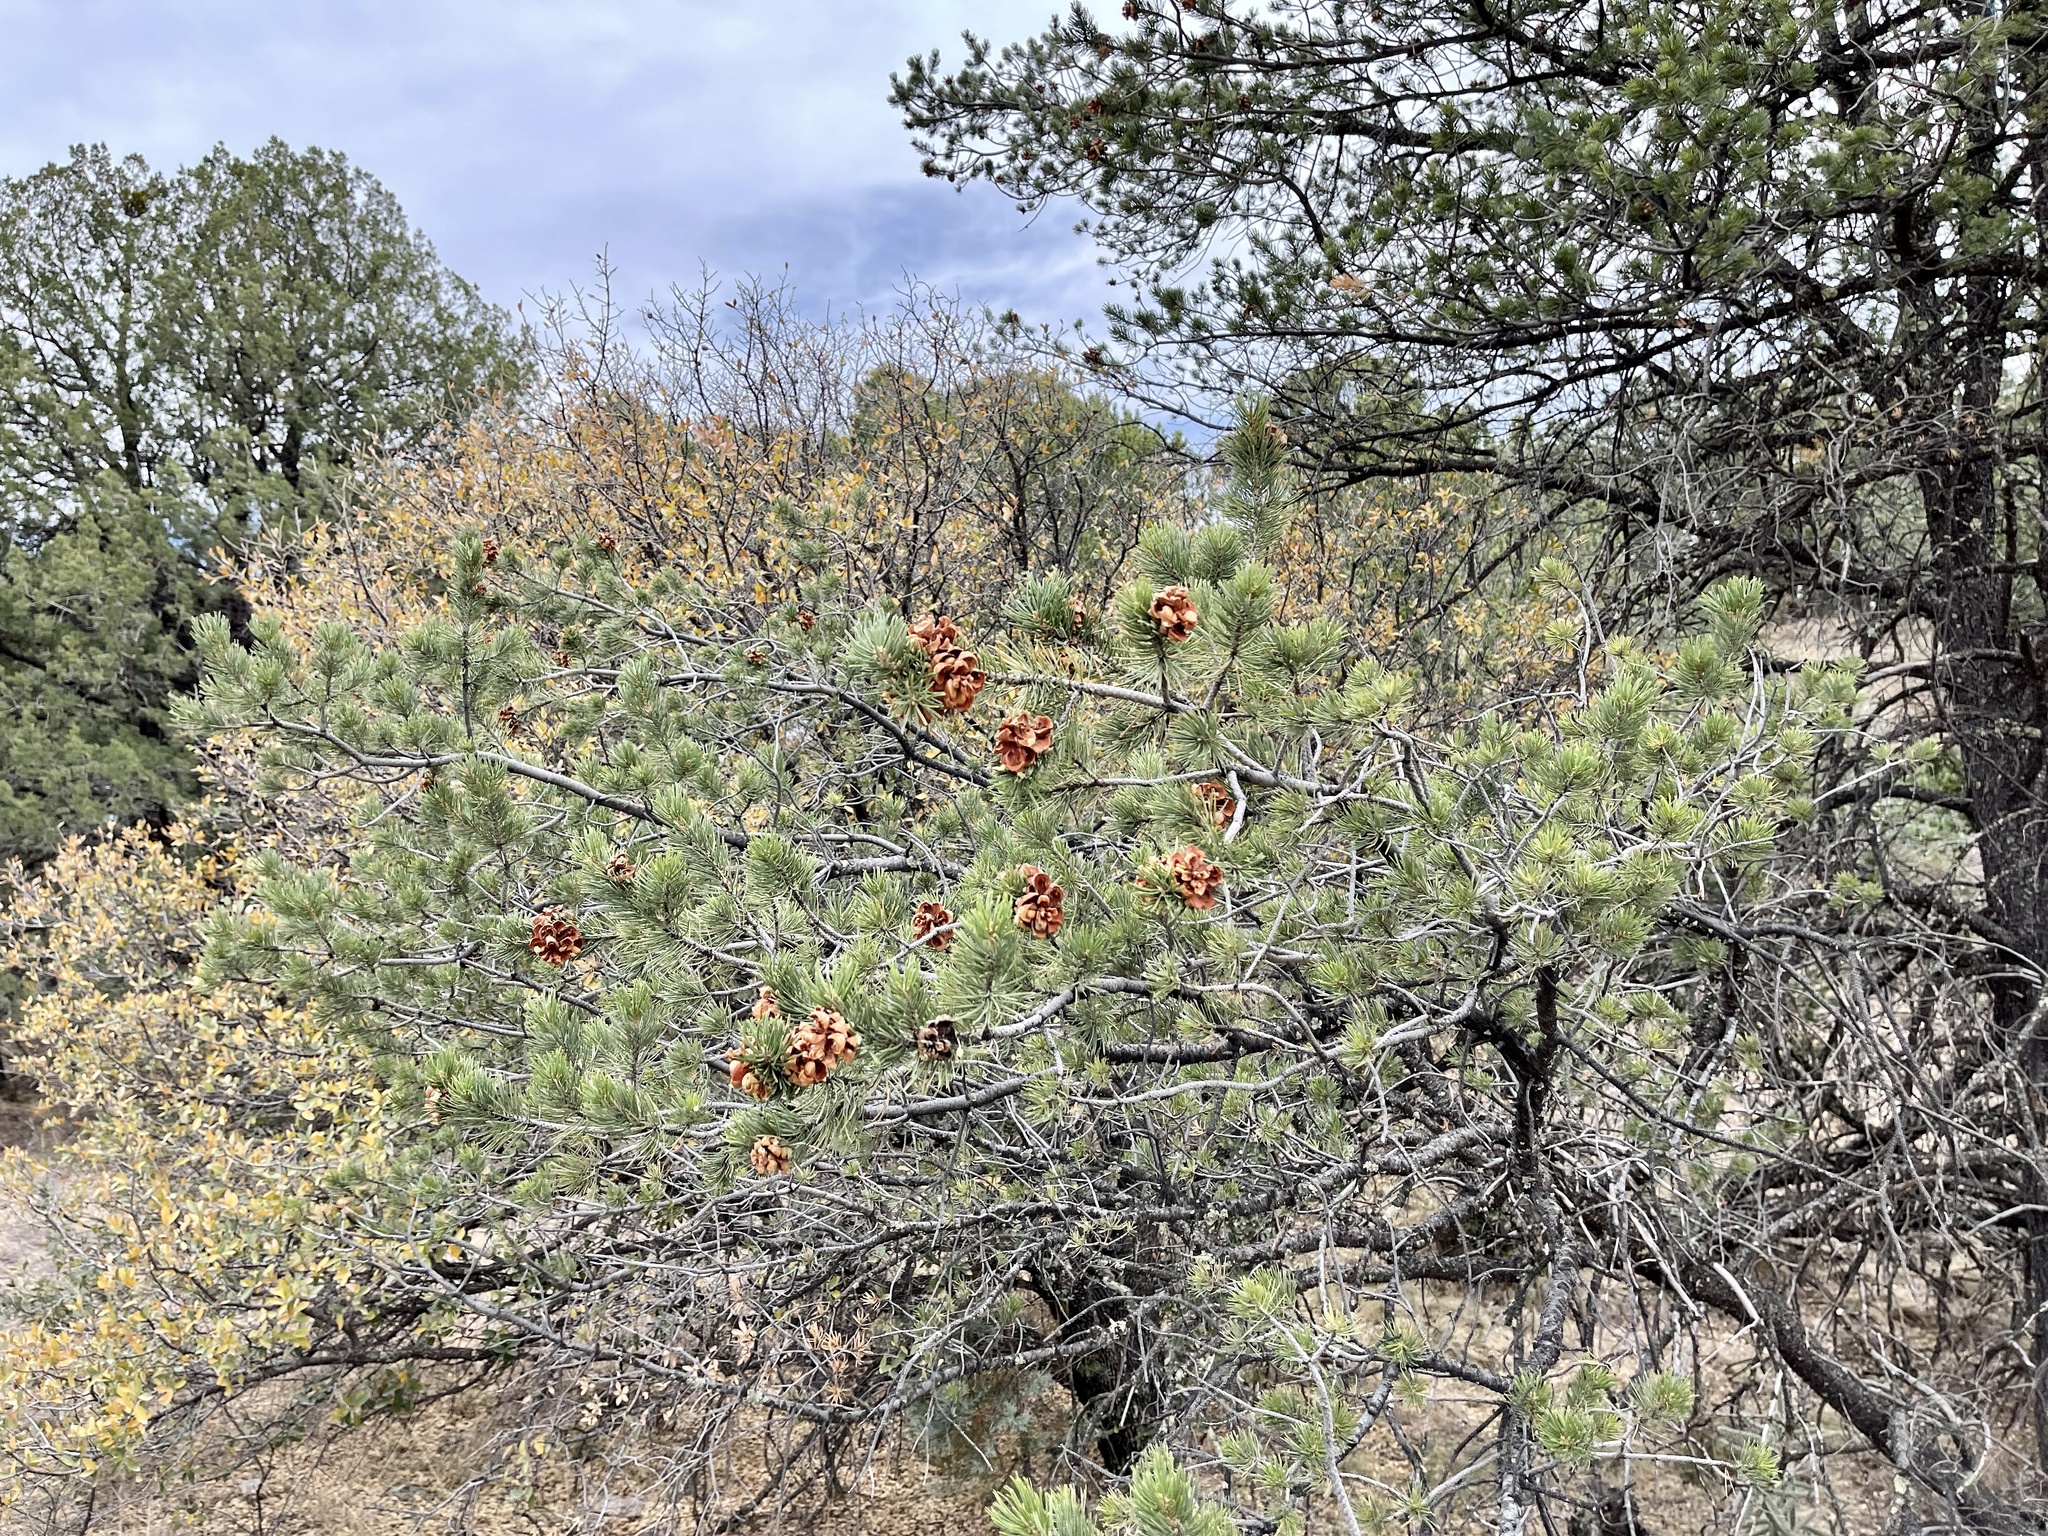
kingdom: Plantae
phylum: Tracheophyta
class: Pinopsida
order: Pinales
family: Pinaceae
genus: Pinus
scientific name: Pinus edulis
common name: Colorado pinyon
